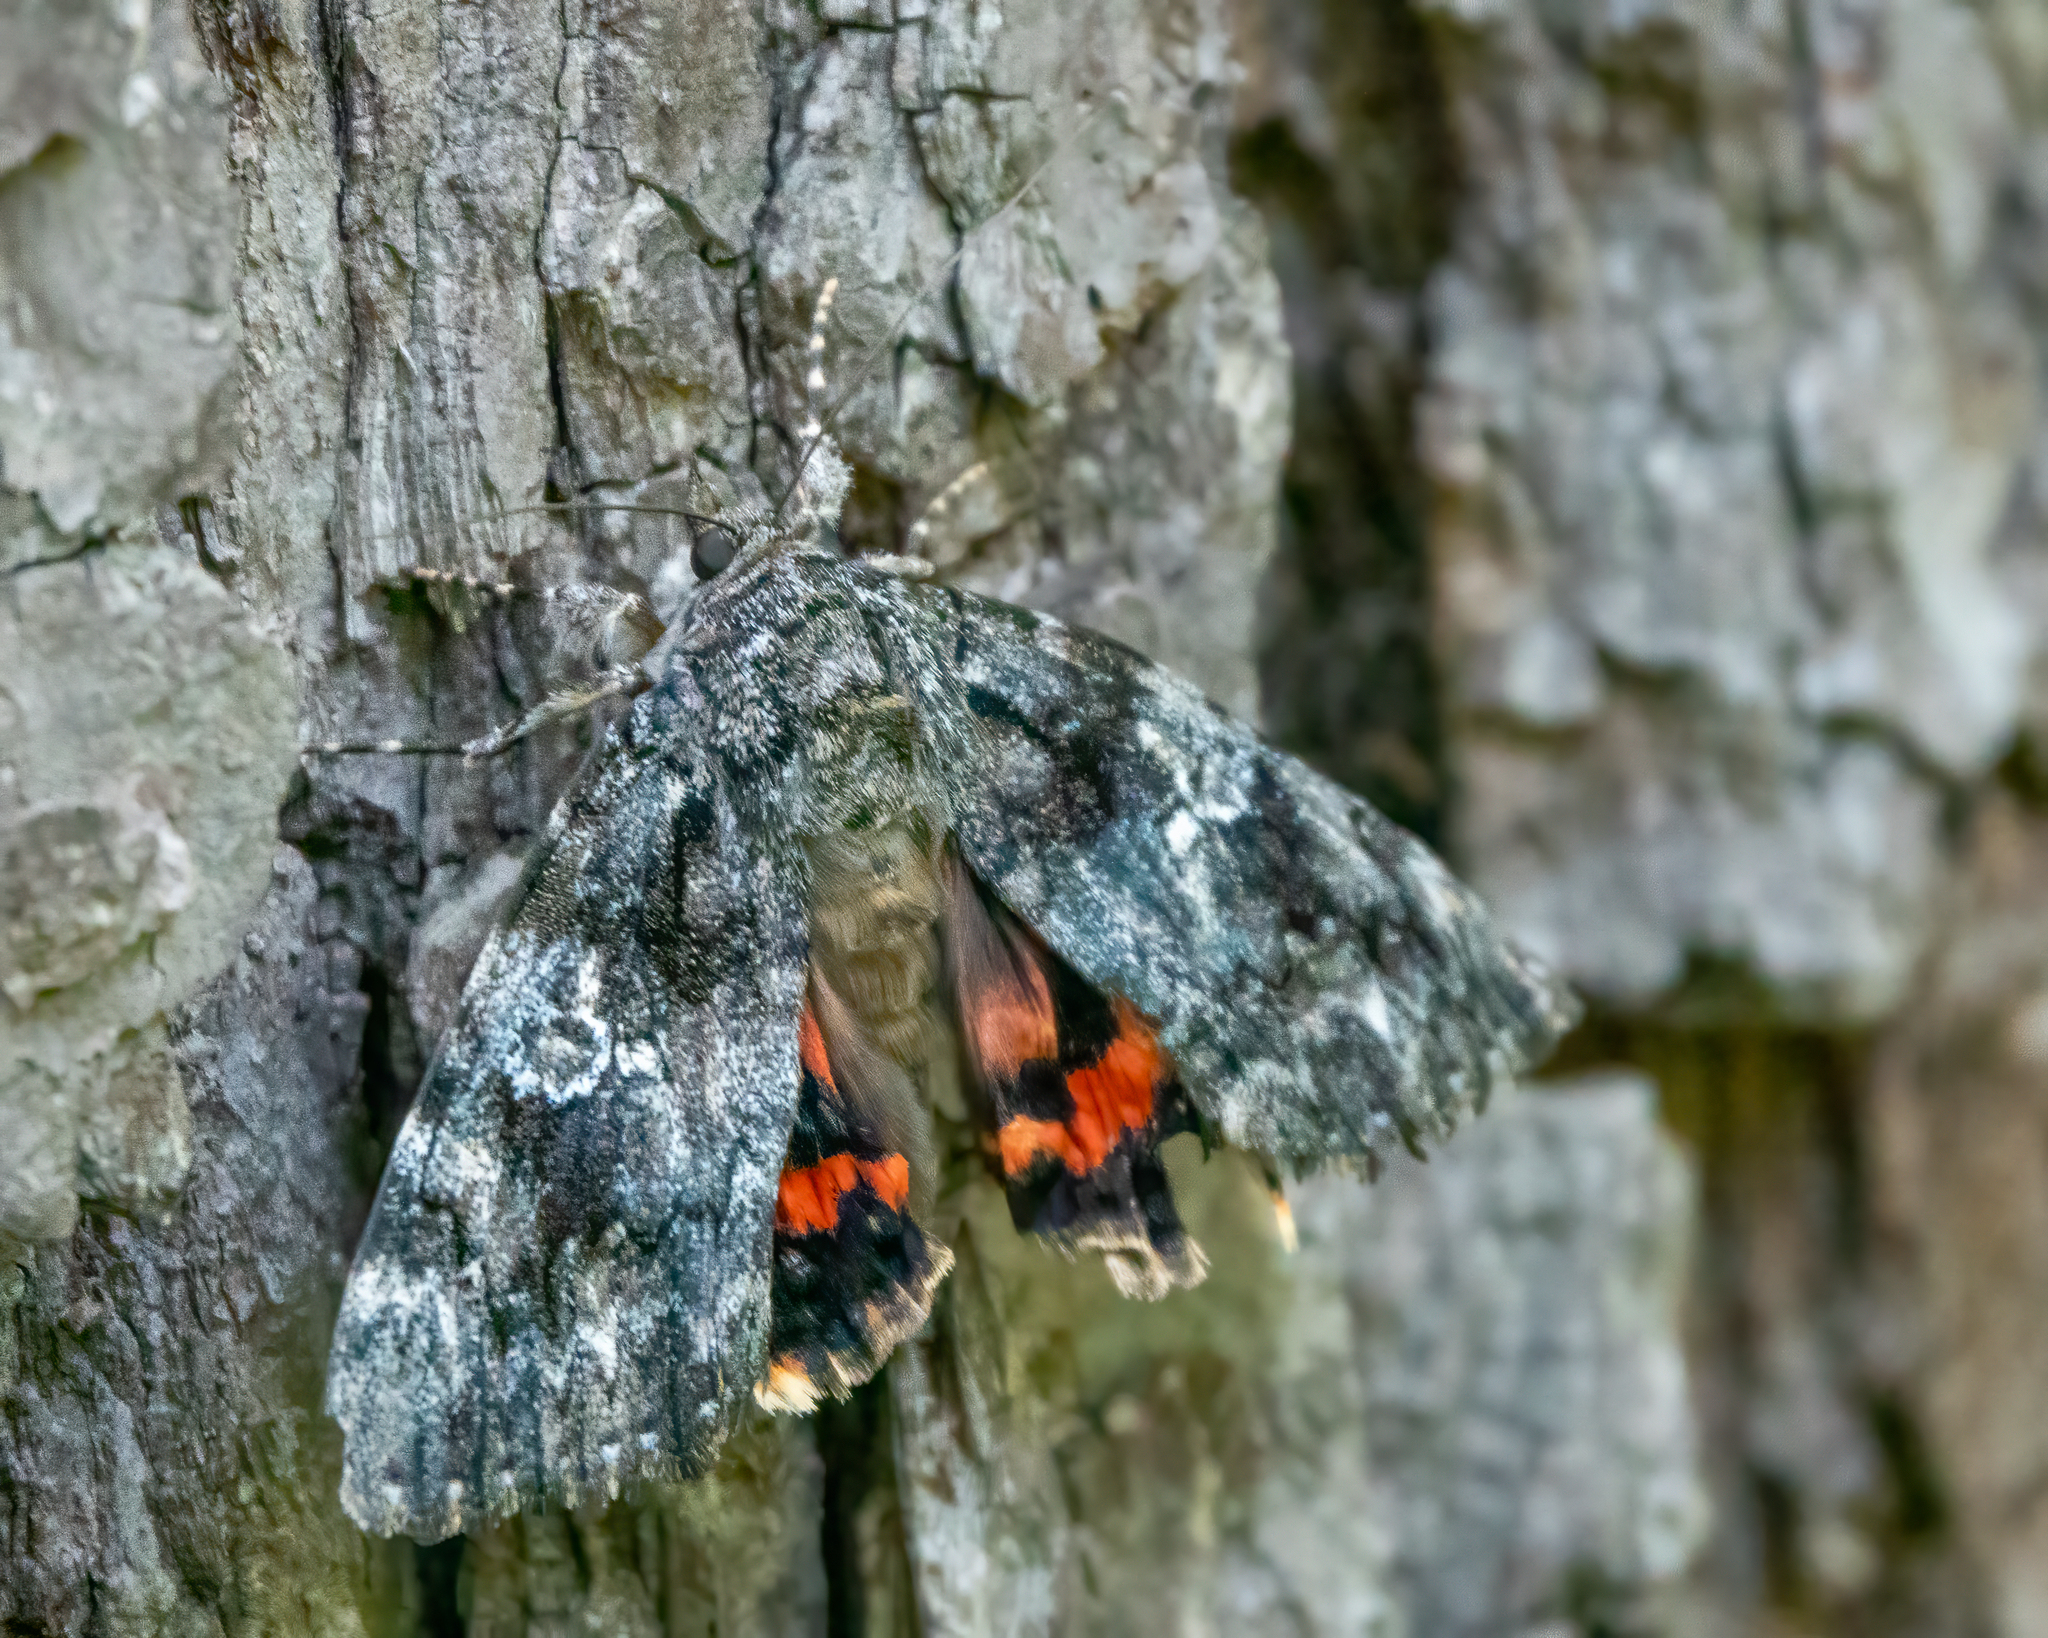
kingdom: Animalia
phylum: Arthropoda
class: Insecta
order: Lepidoptera
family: Erebidae
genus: Catocala
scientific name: Catocala ilia
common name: Ilia underwing
